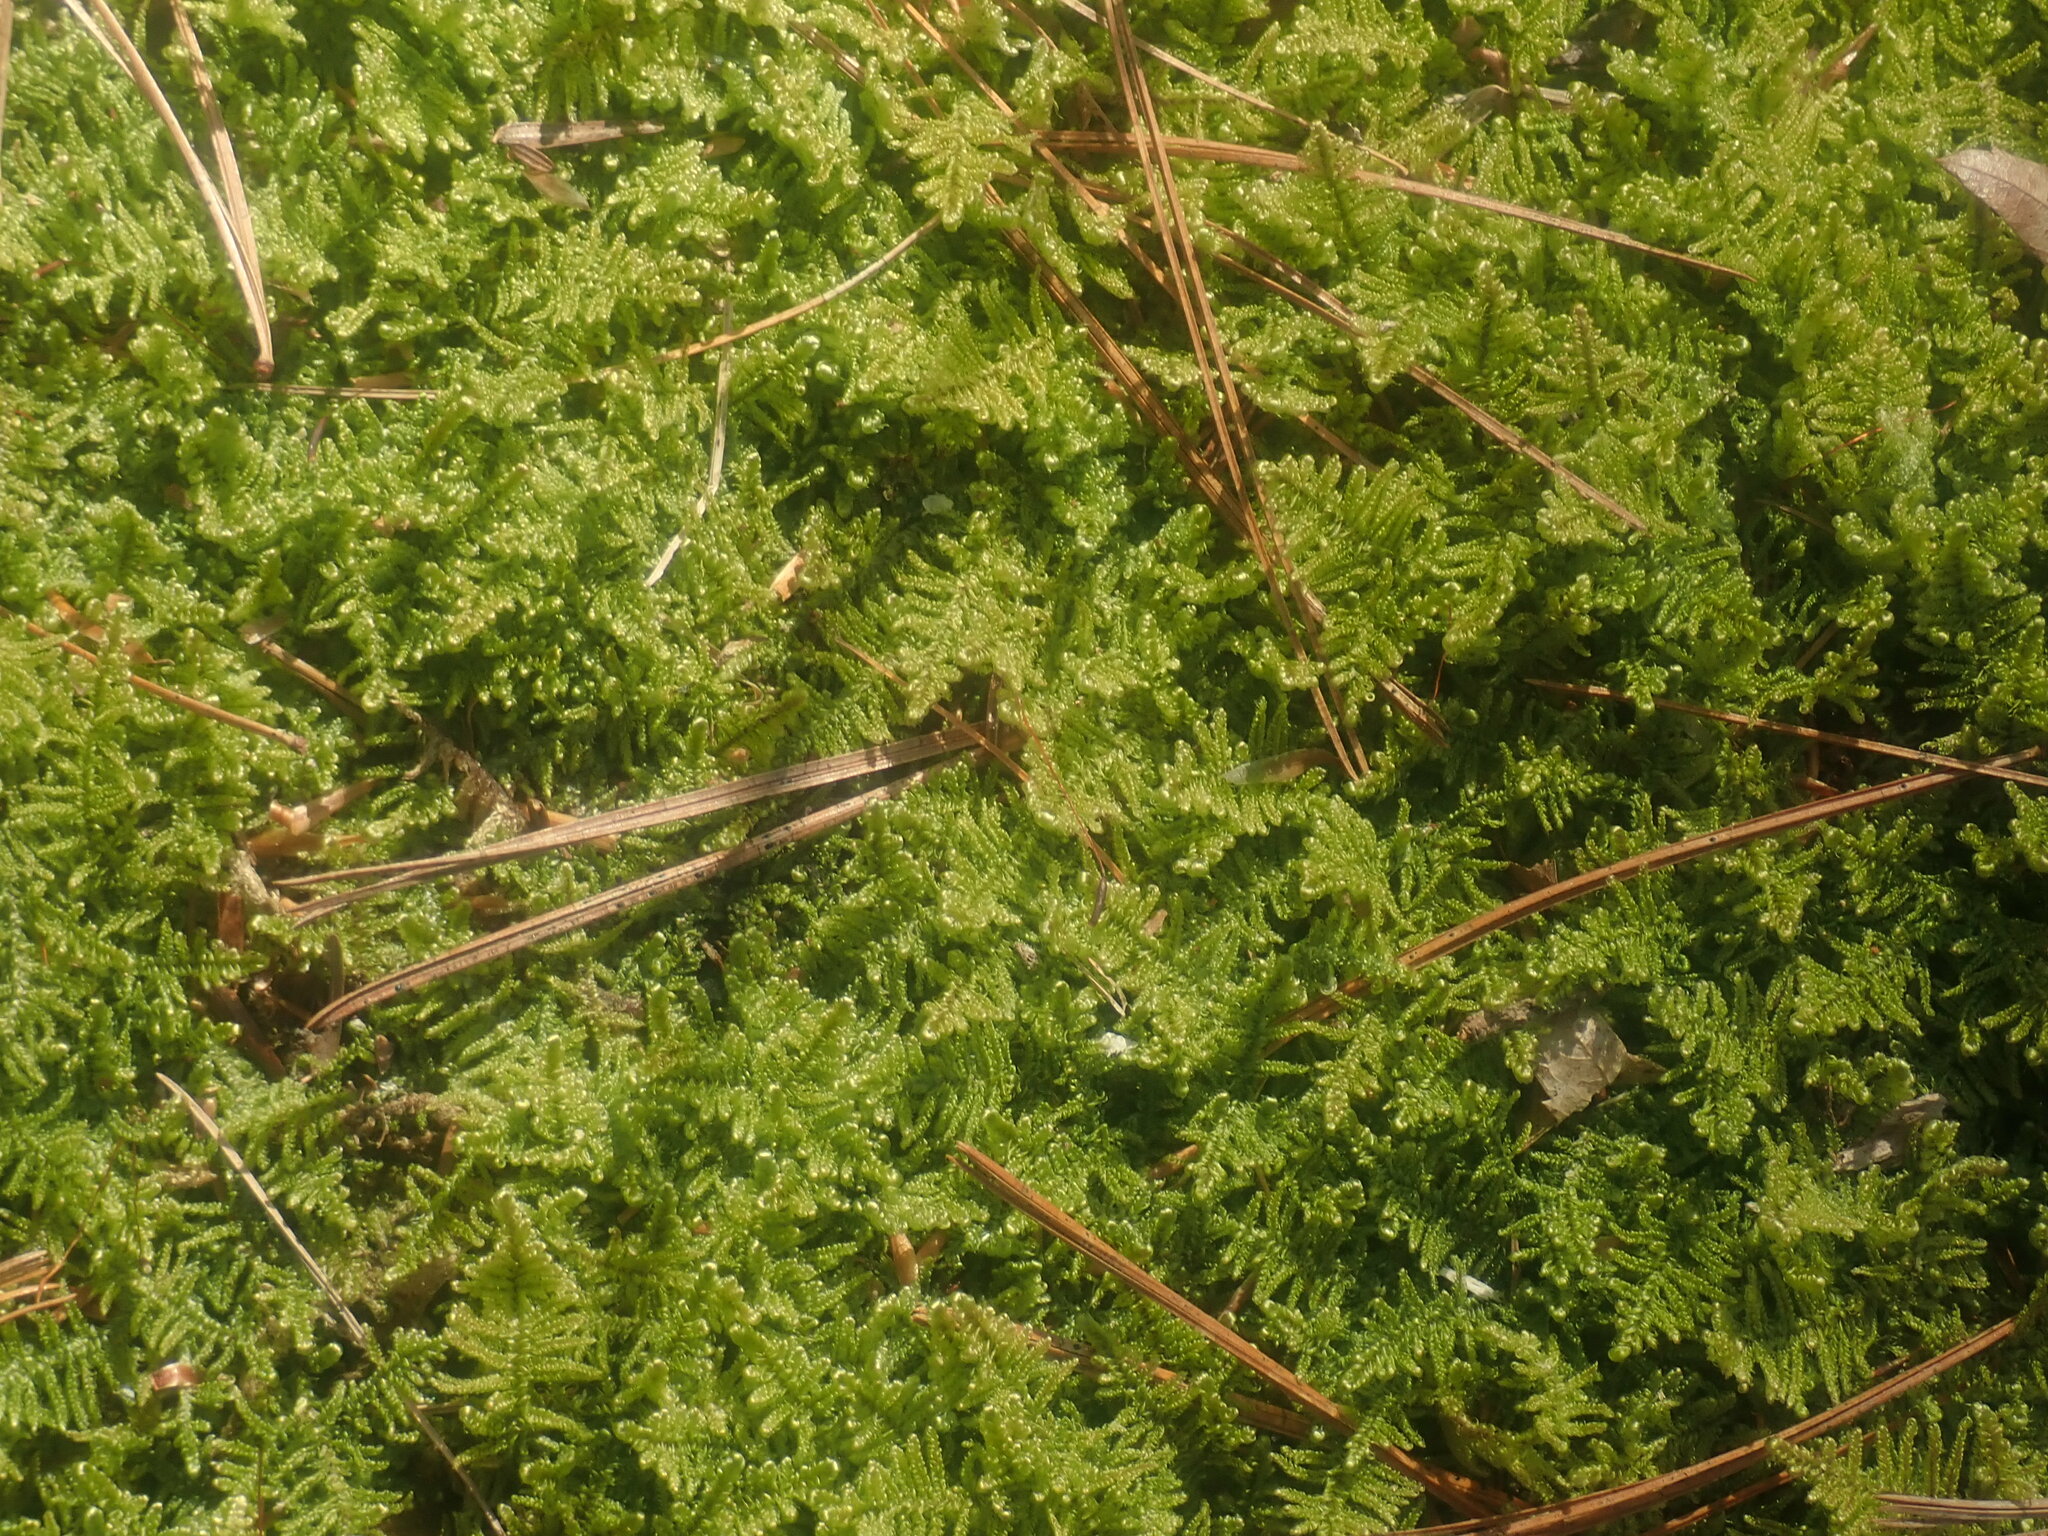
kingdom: Plantae
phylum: Bryophyta
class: Bryopsida
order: Hypnales
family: Callicladiaceae
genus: Callicladium
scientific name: Callicladium imponens
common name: Brocade moss
